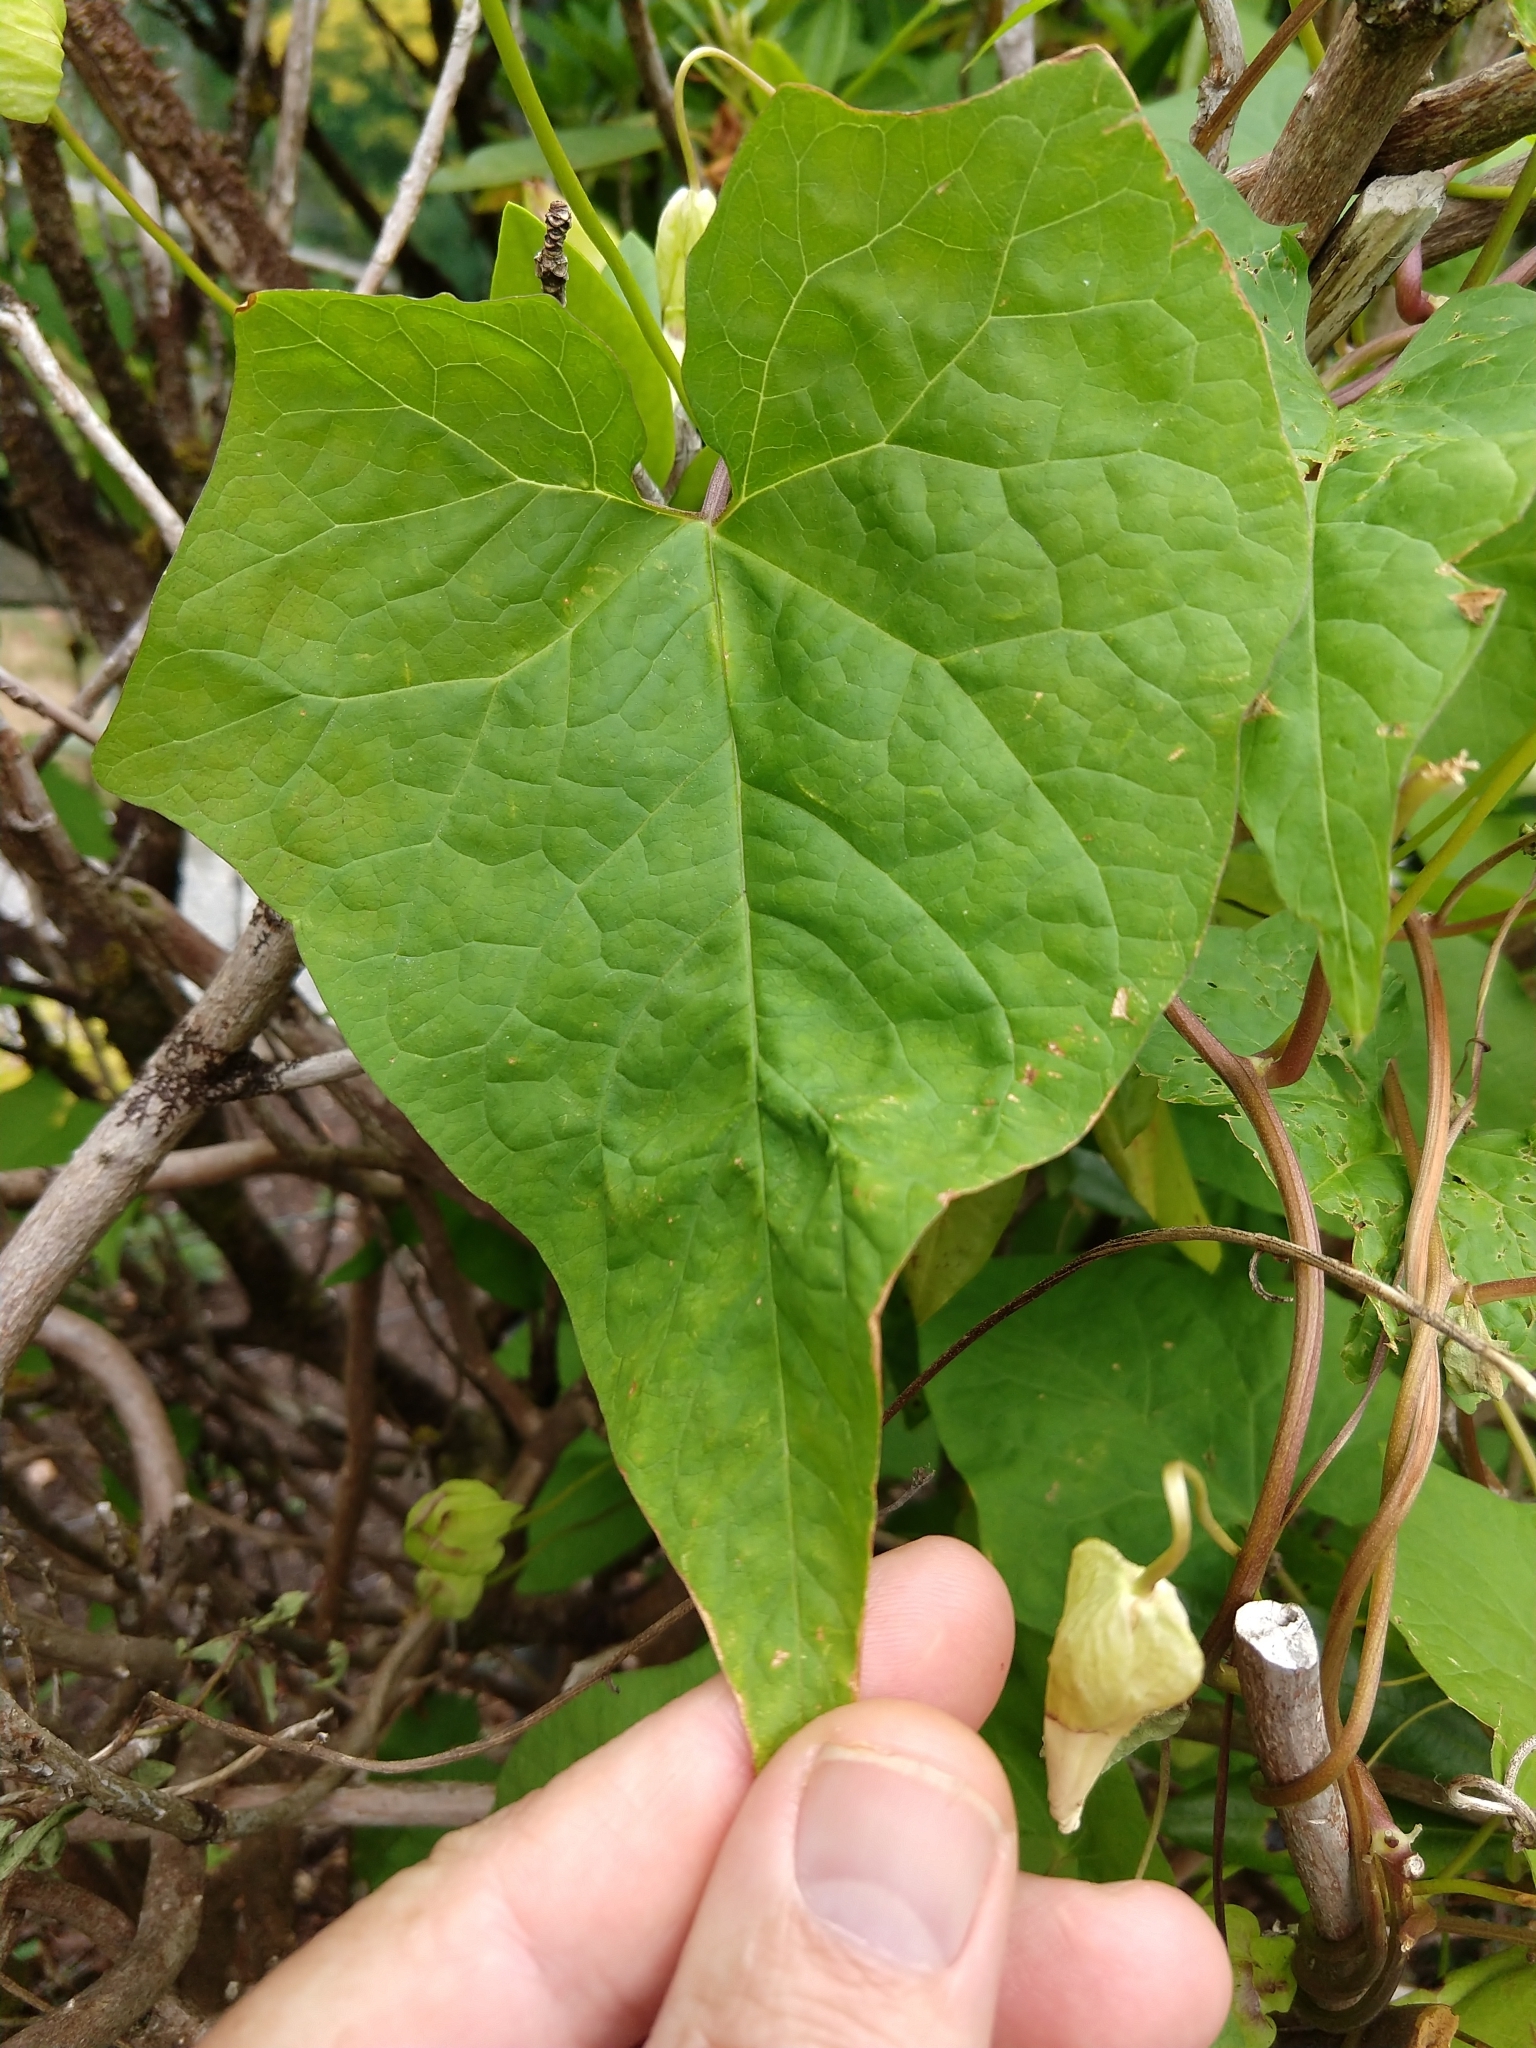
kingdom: Plantae
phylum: Tracheophyta
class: Magnoliopsida
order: Solanales
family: Convolvulaceae
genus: Calystegia
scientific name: Calystegia silvatica
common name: Large bindweed
